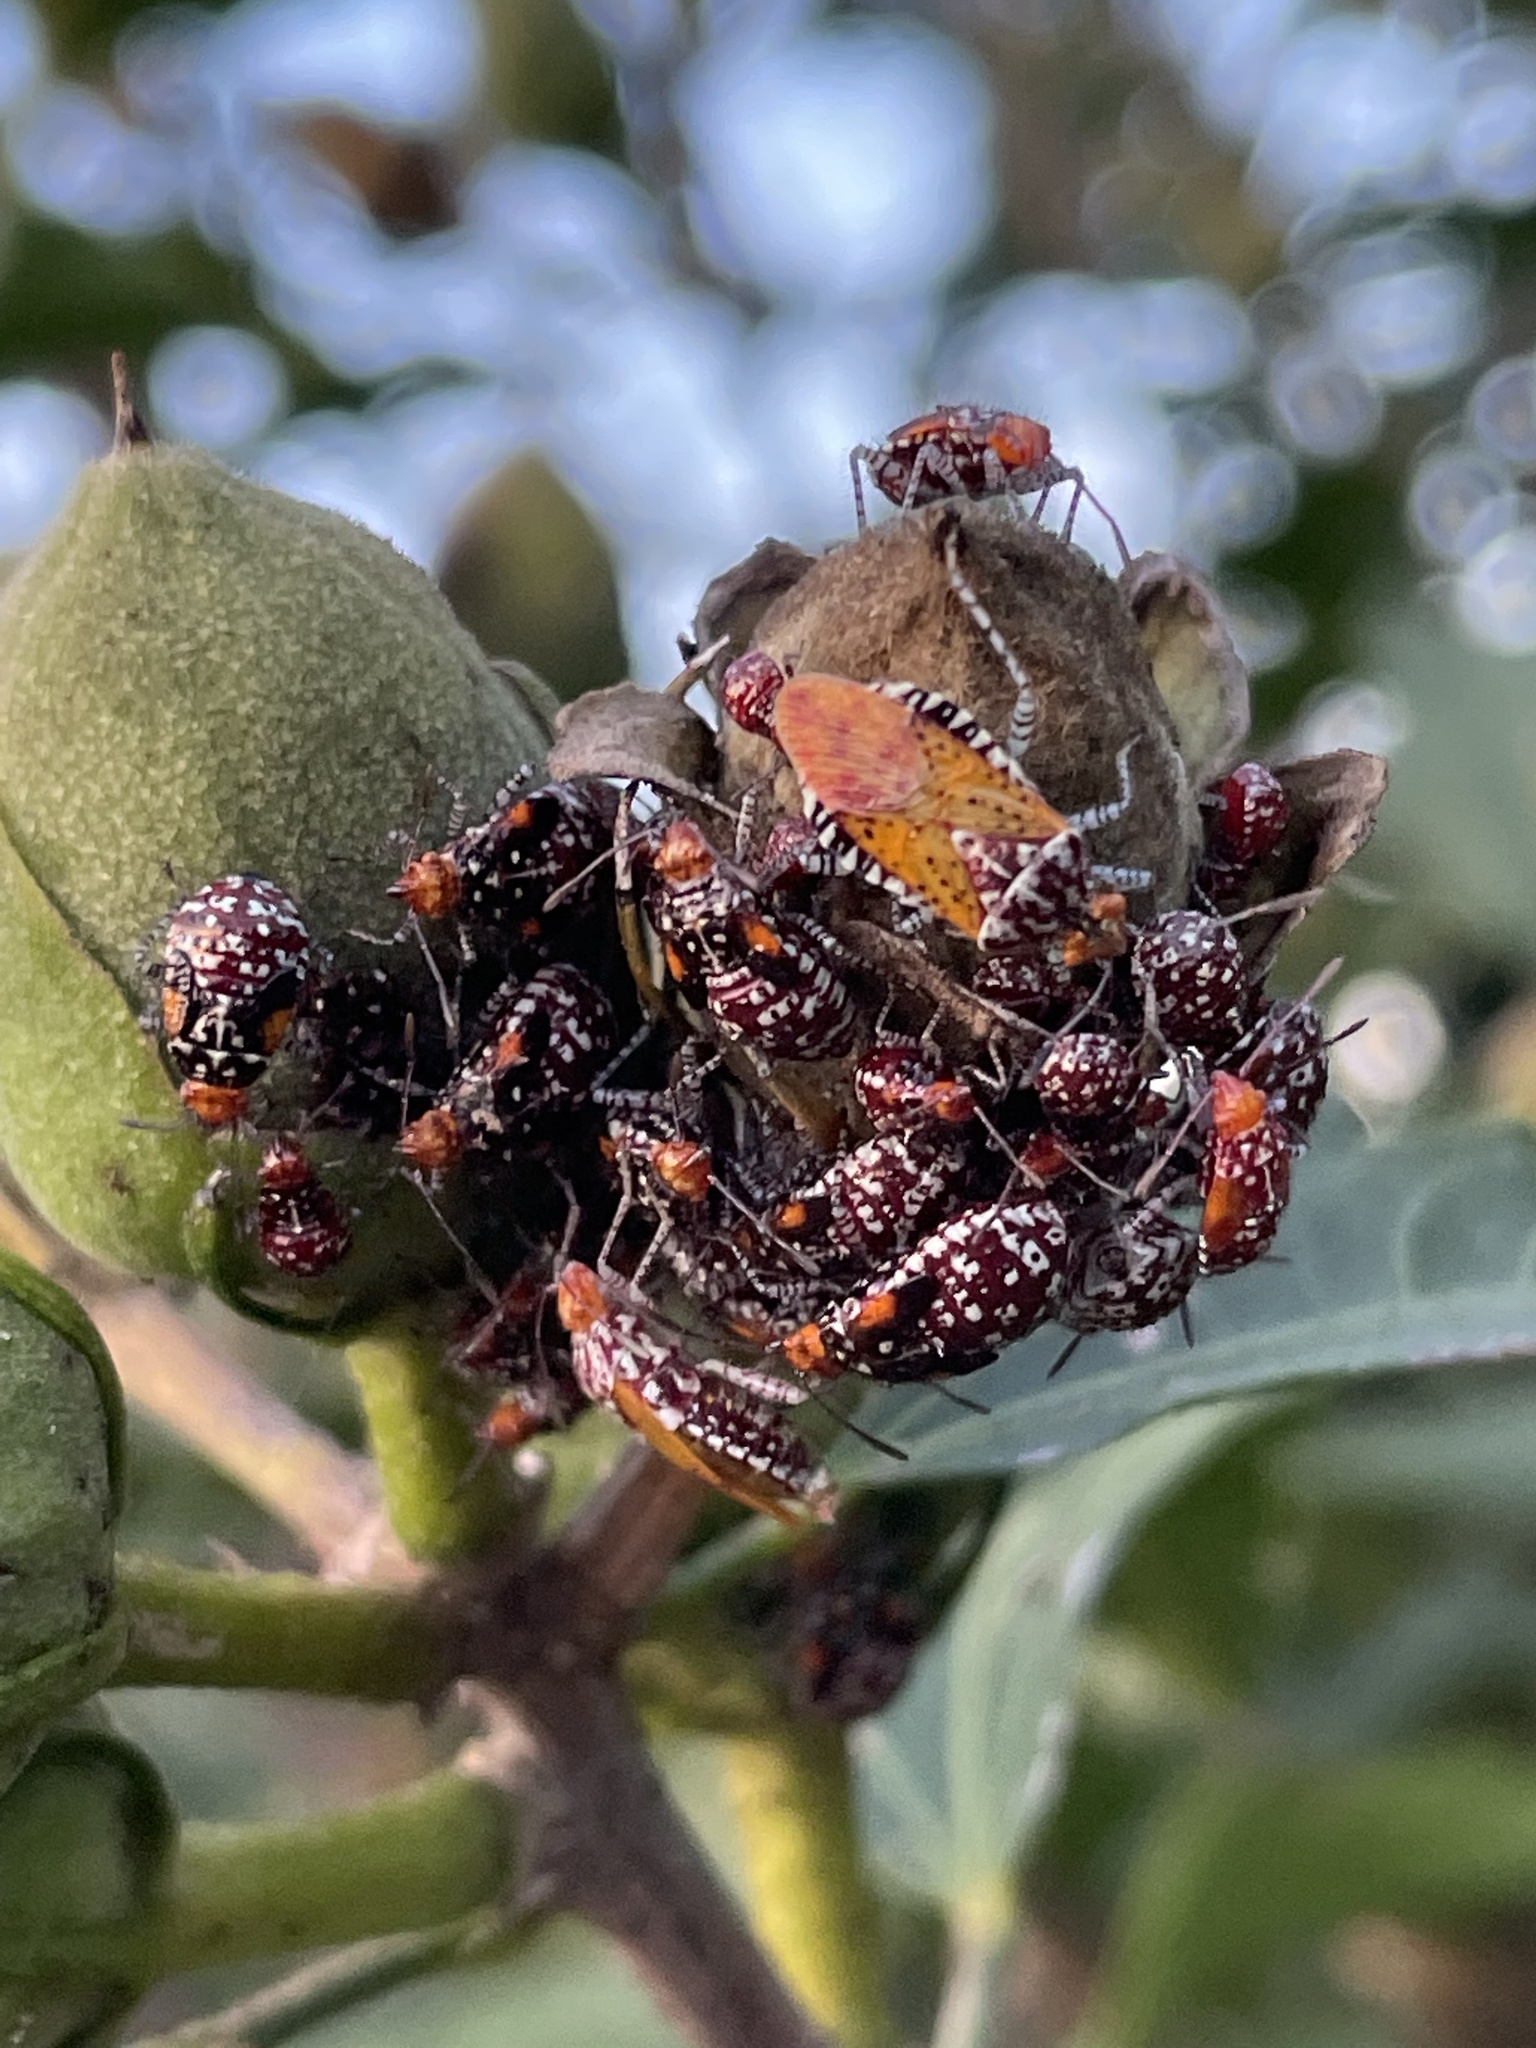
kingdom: Animalia
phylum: Arthropoda
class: Insecta
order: Hemiptera
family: Rhopalidae
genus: Niesthrea
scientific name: Niesthrea louisianica
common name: Scentless plant bug
